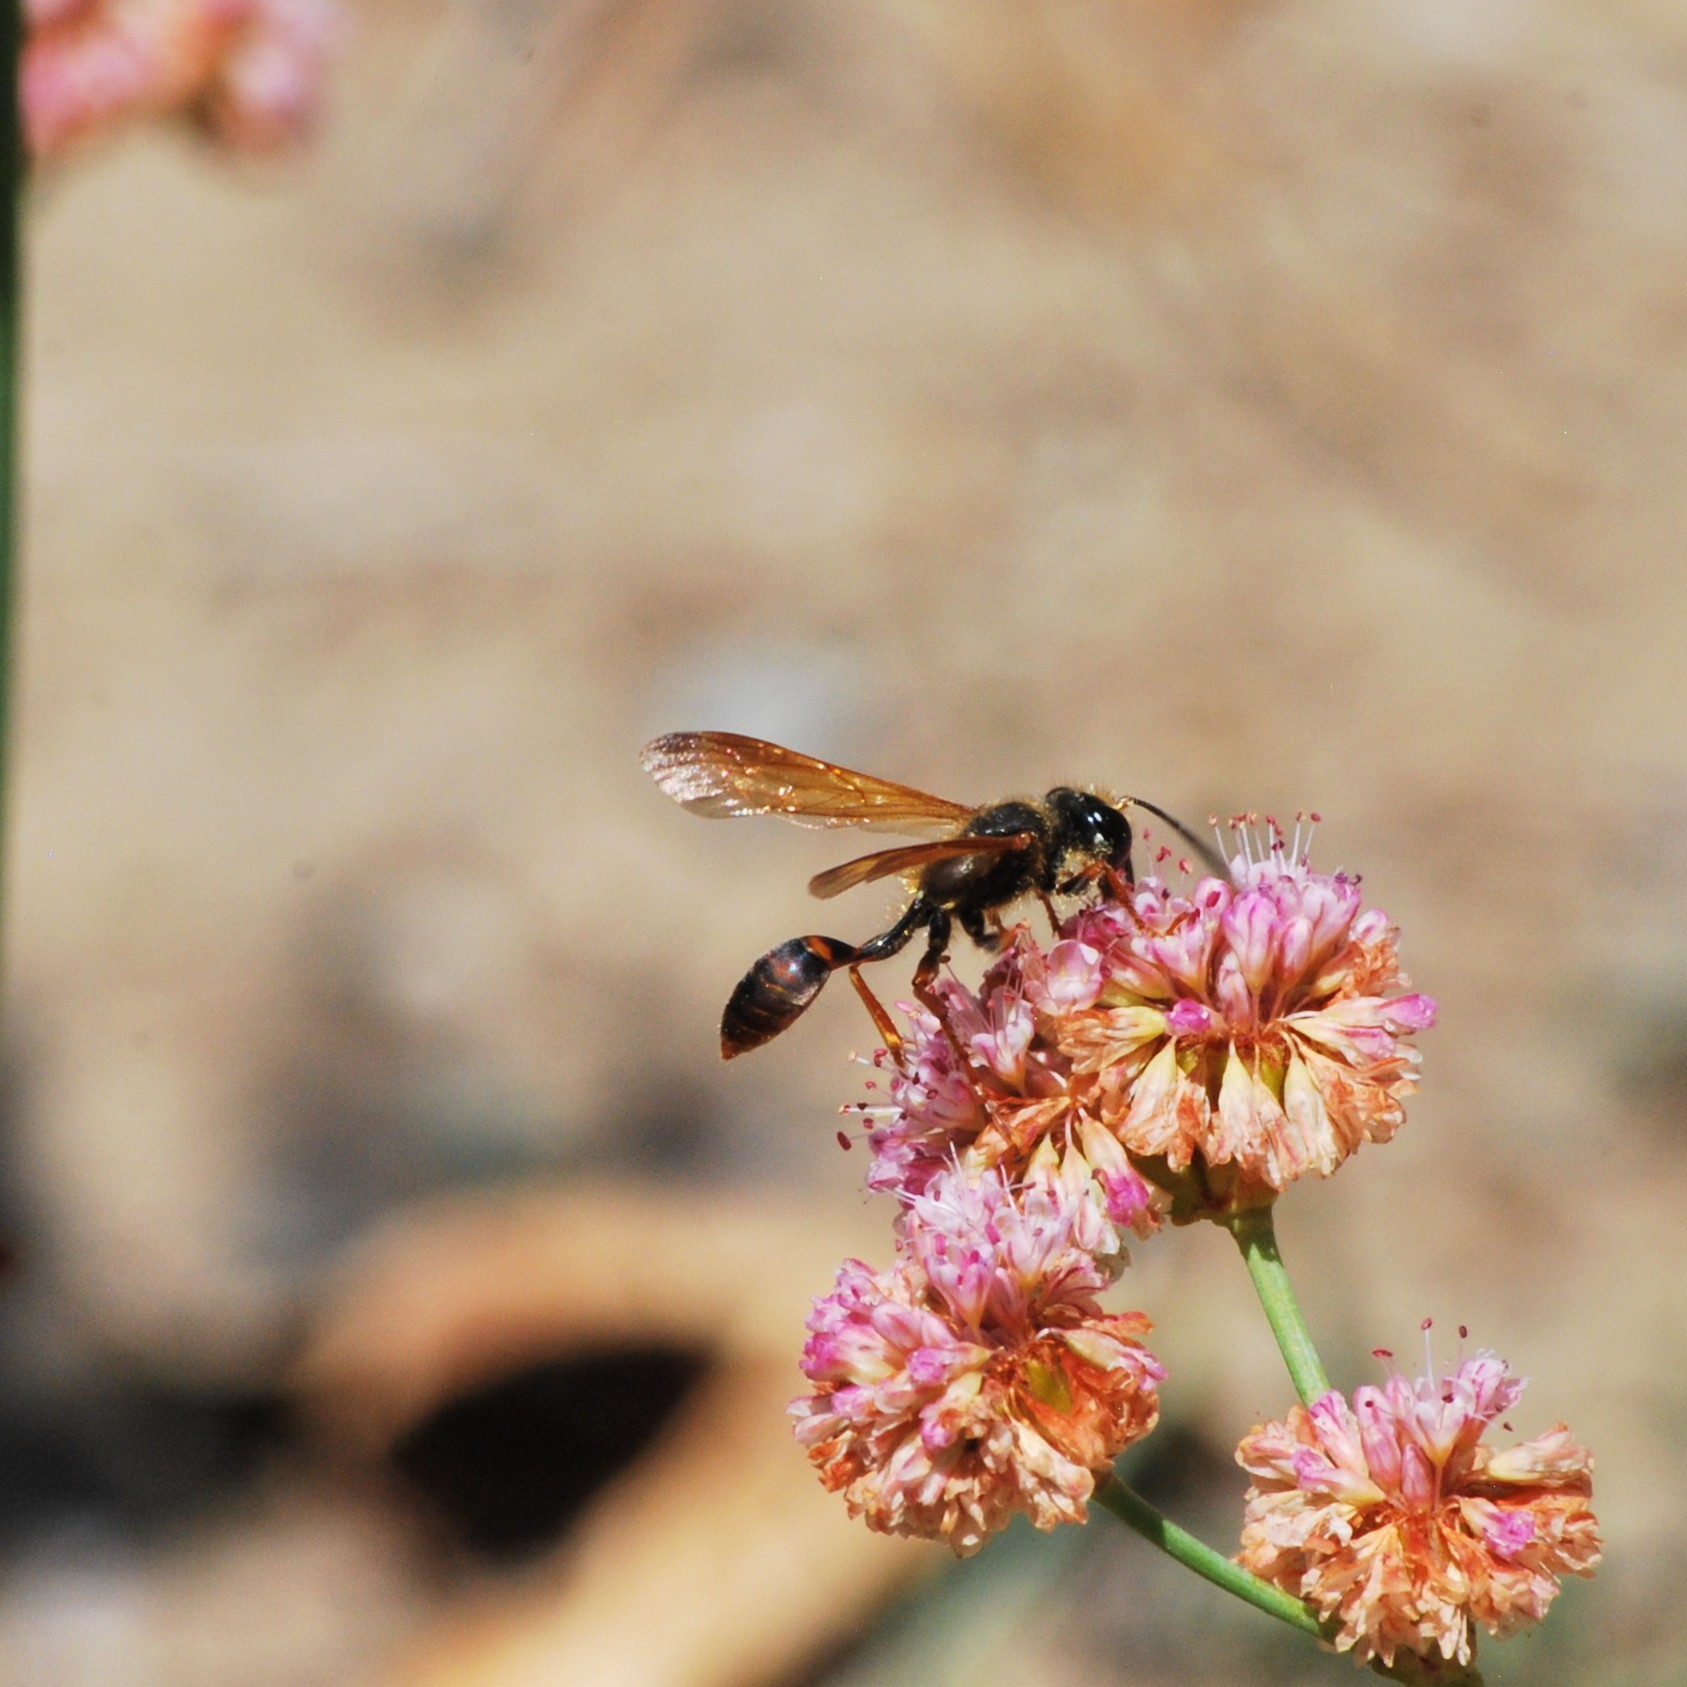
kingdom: Animalia
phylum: Arthropoda
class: Insecta
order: Hymenoptera
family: Sphecidae
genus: Isodontia
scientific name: Isodontia elegans
